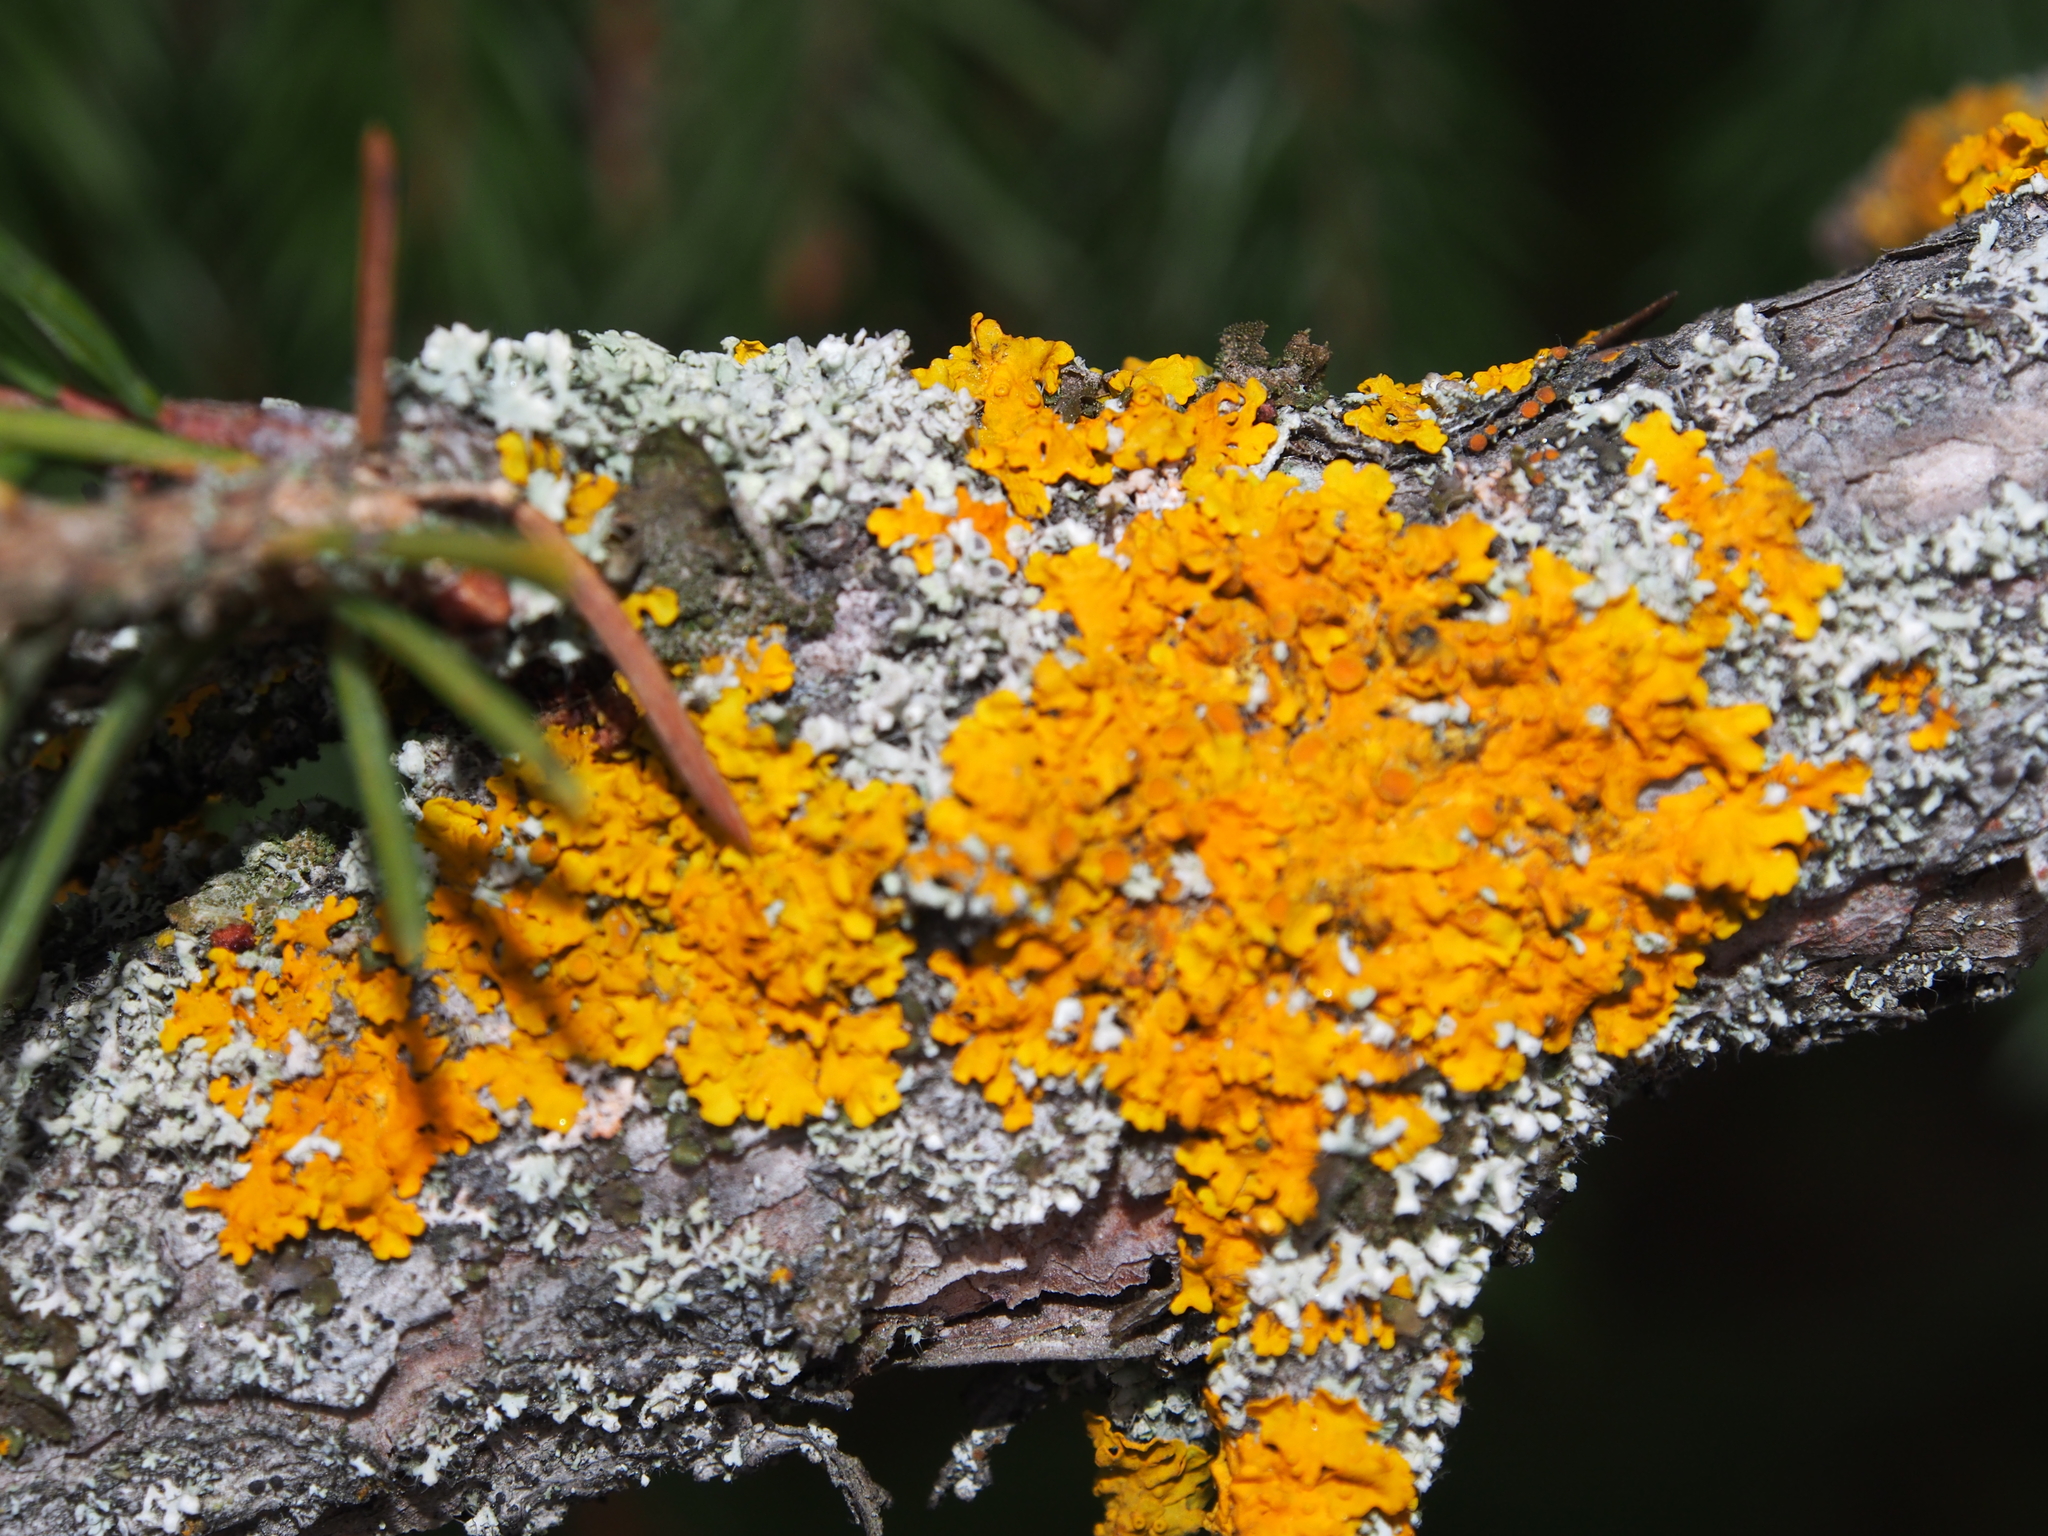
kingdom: Fungi
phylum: Ascomycota
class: Lecanoromycetes
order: Teloschistales
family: Teloschistaceae
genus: Xanthoria
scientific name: Xanthoria parietina
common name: Common orange lichen
